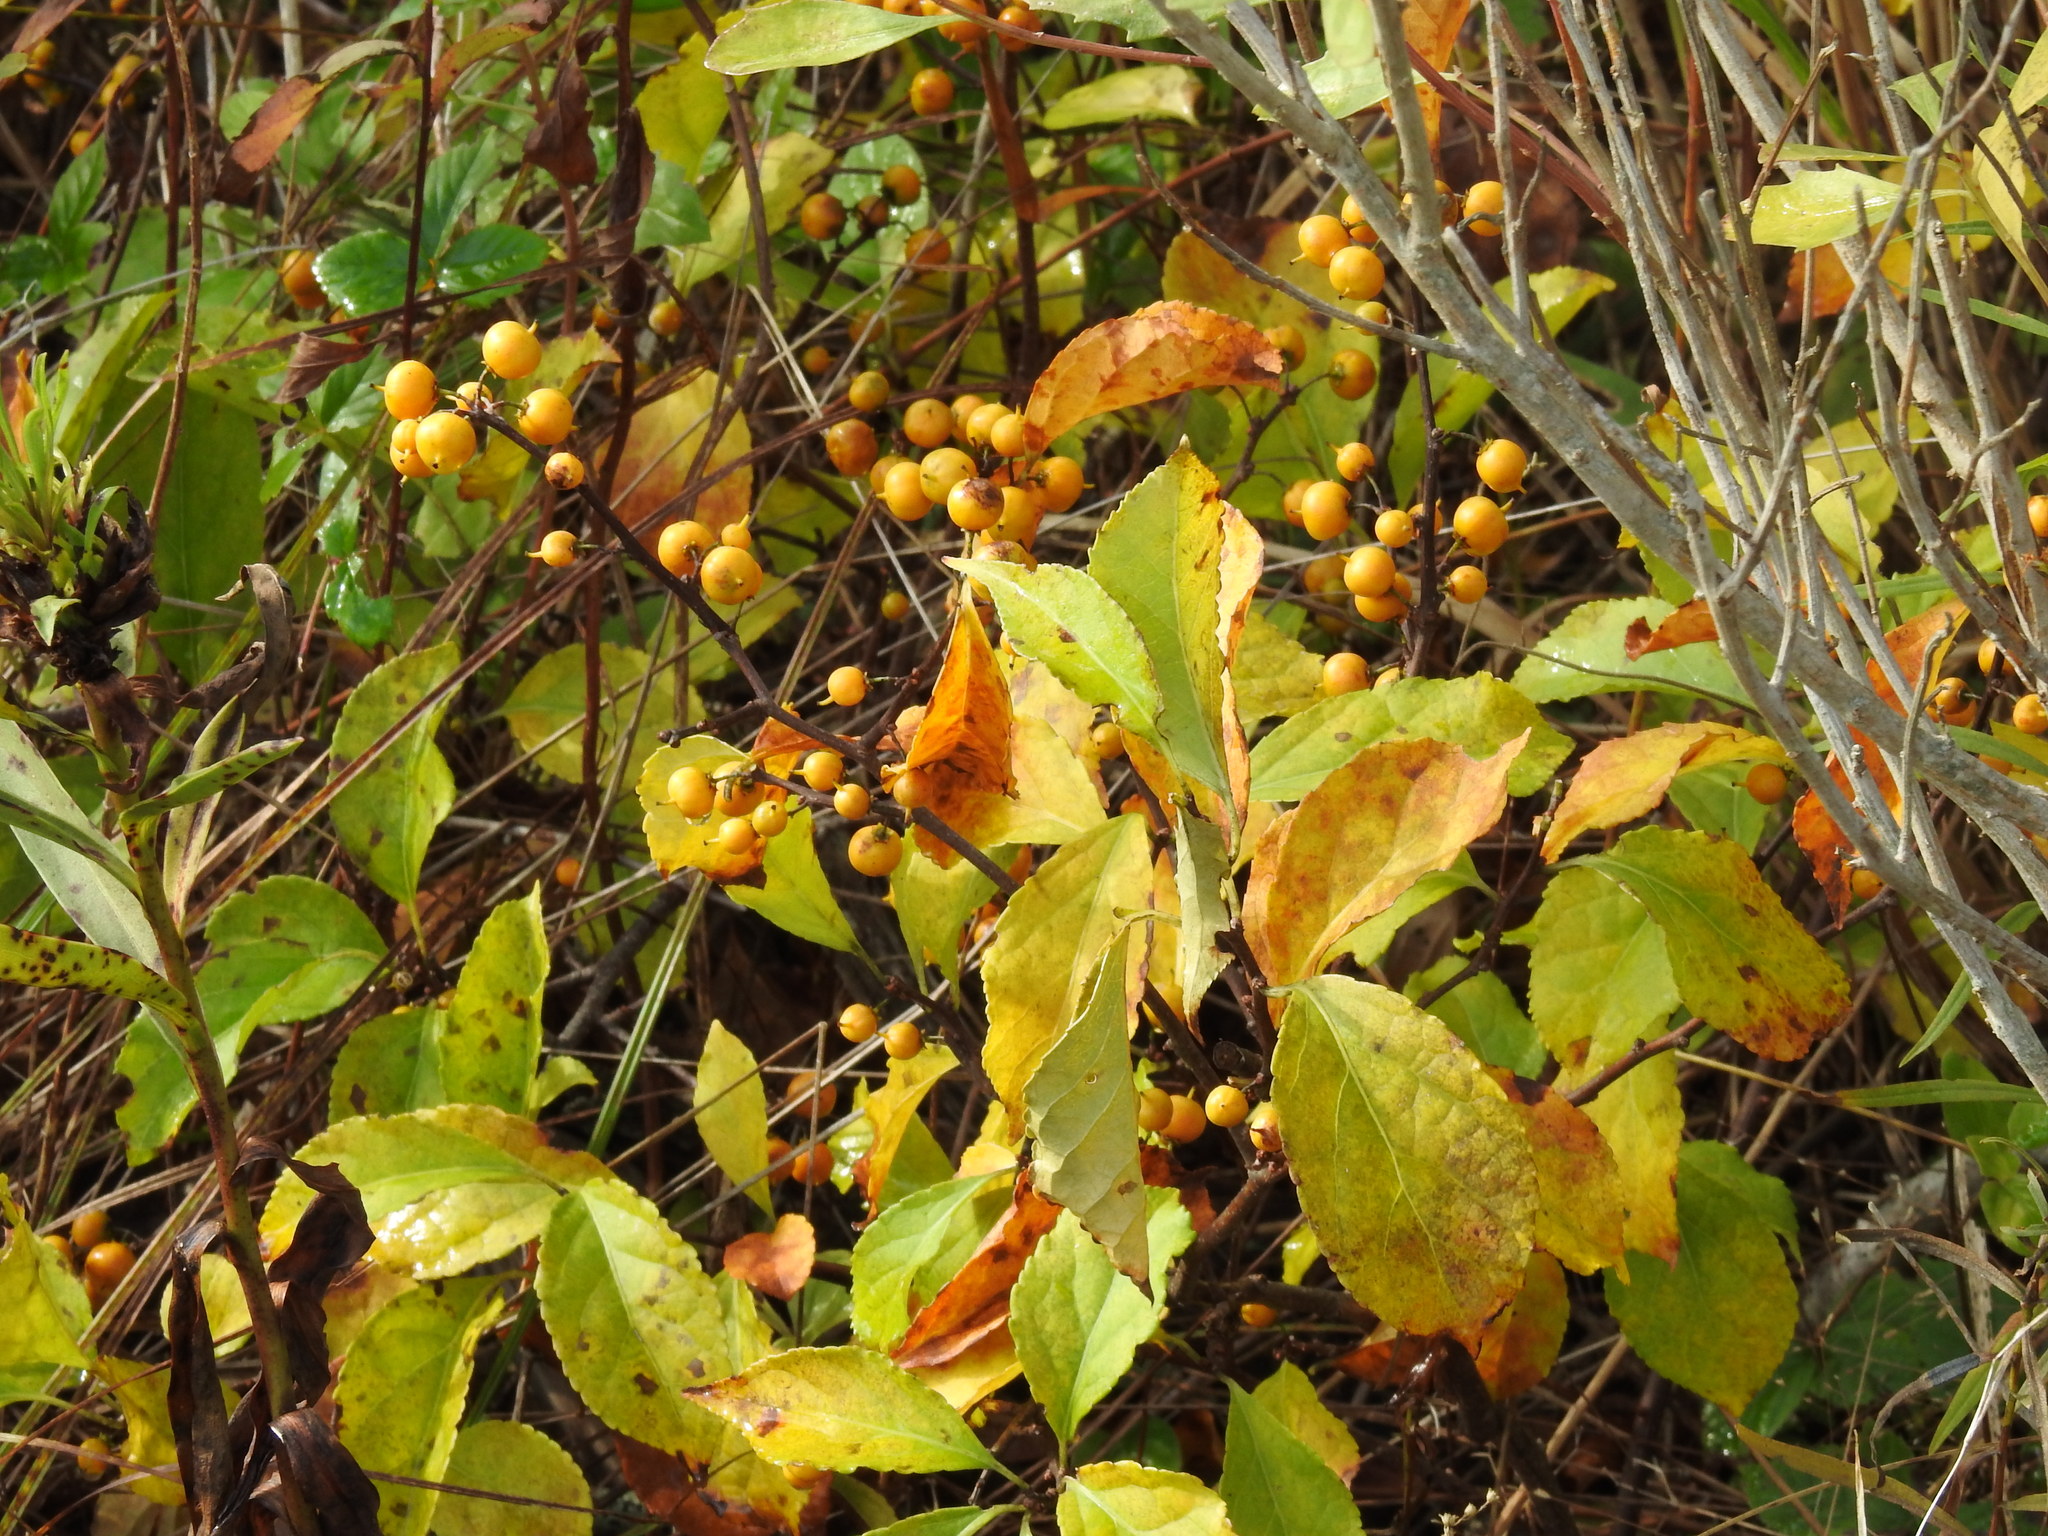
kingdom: Plantae
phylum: Tracheophyta
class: Magnoliopsida
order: Celastrales
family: Celastraceae
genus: Celastrus
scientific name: Celastrus orbiculatus
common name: Oriental bittersweet
